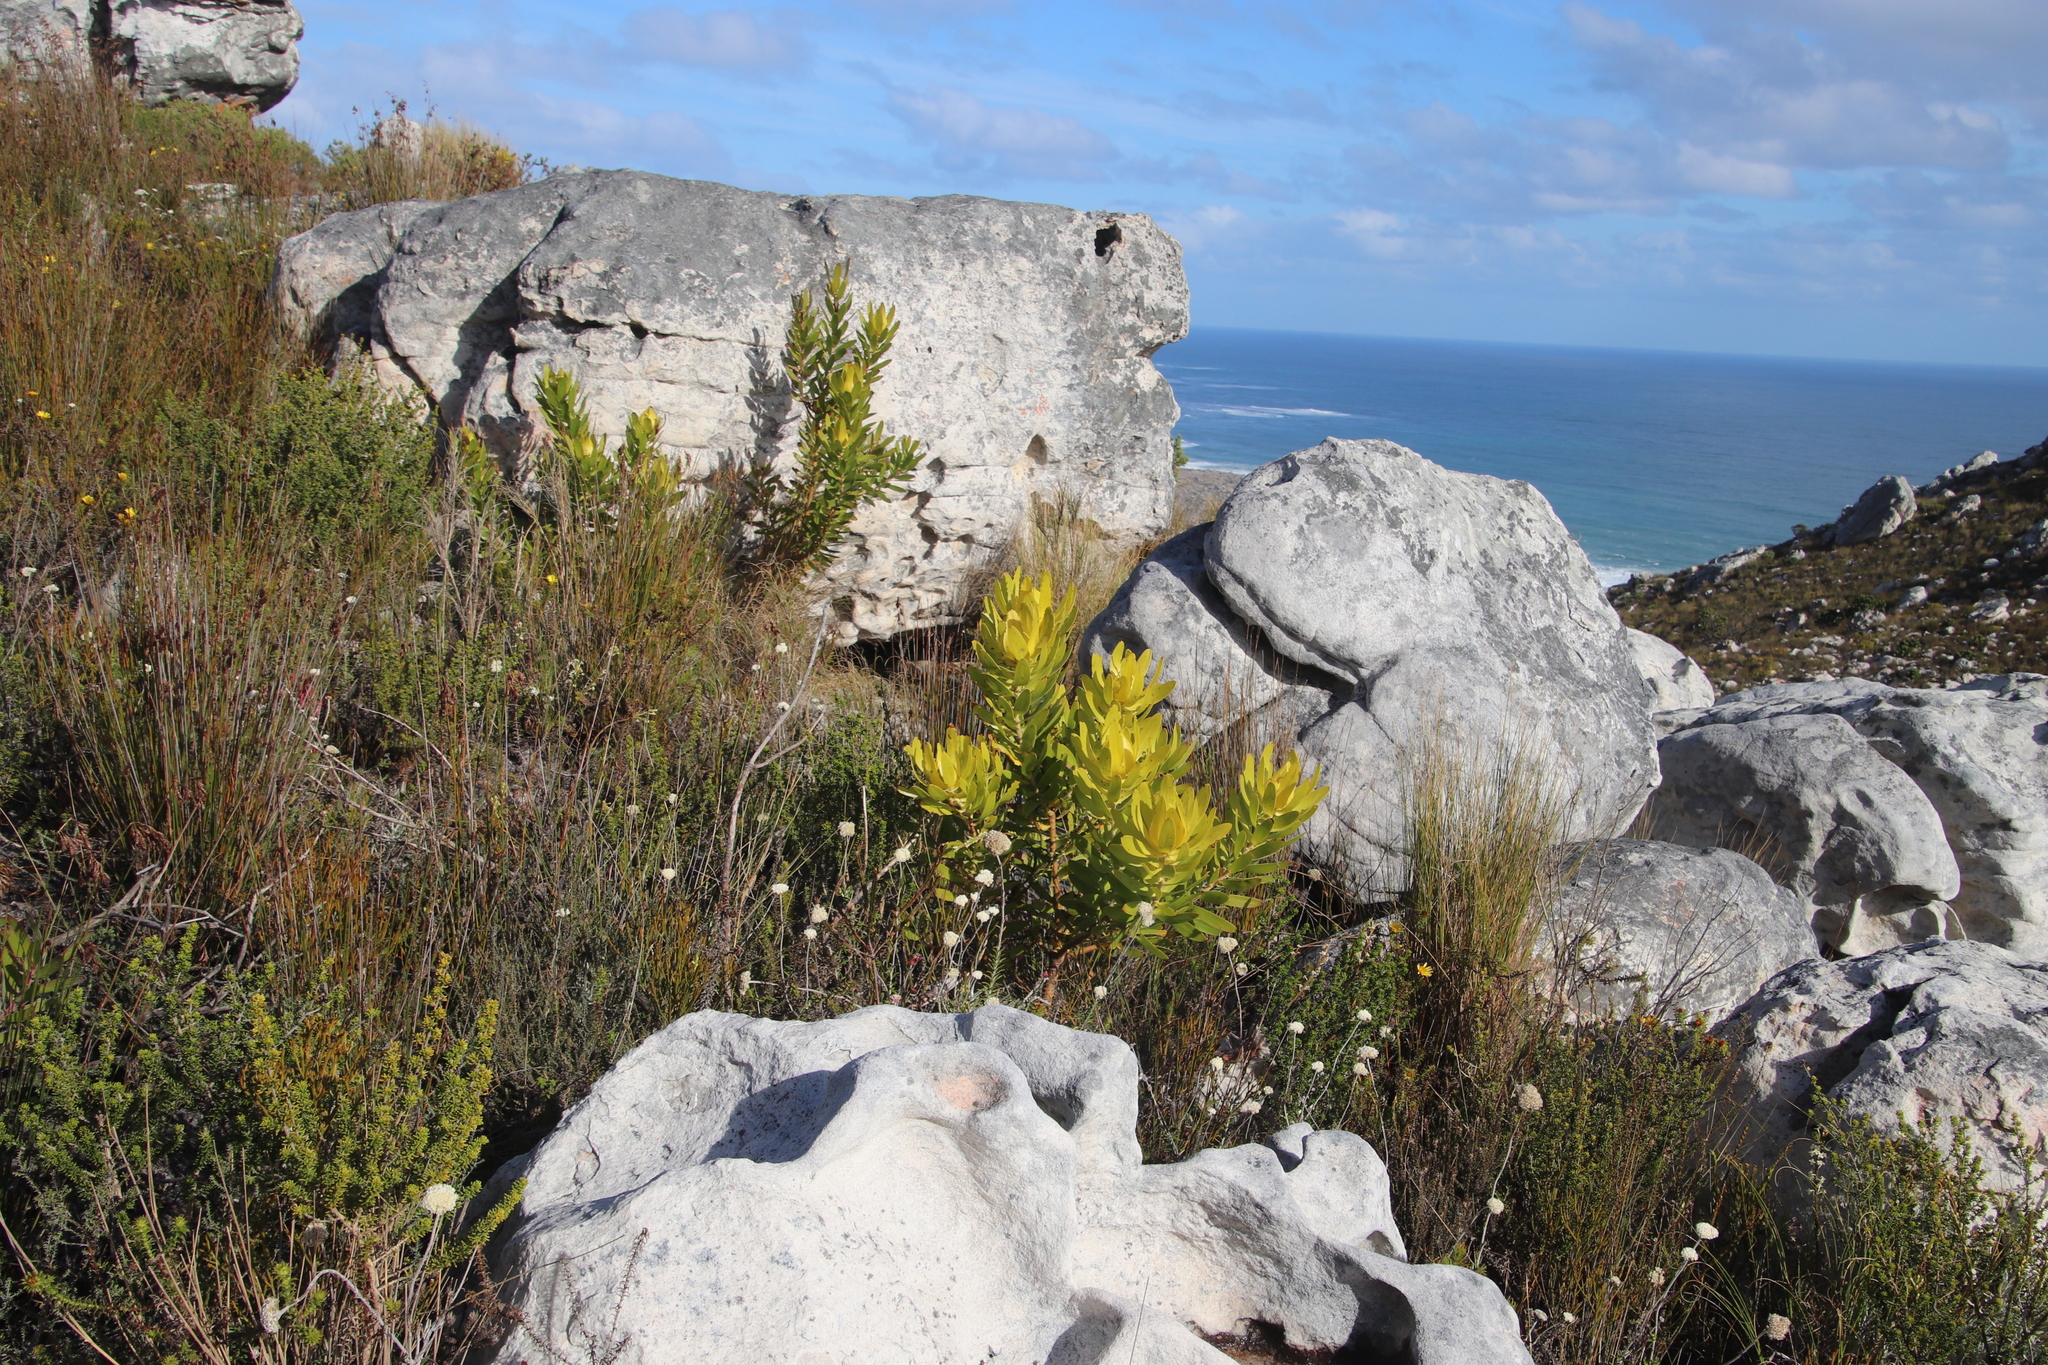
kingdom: Plantae
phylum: Tracheophyta
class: Magnoliopsida
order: Proteales
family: Proteaceae
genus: Leucadendron
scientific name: Leucadendron laureolum
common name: Golden sunshinebush
